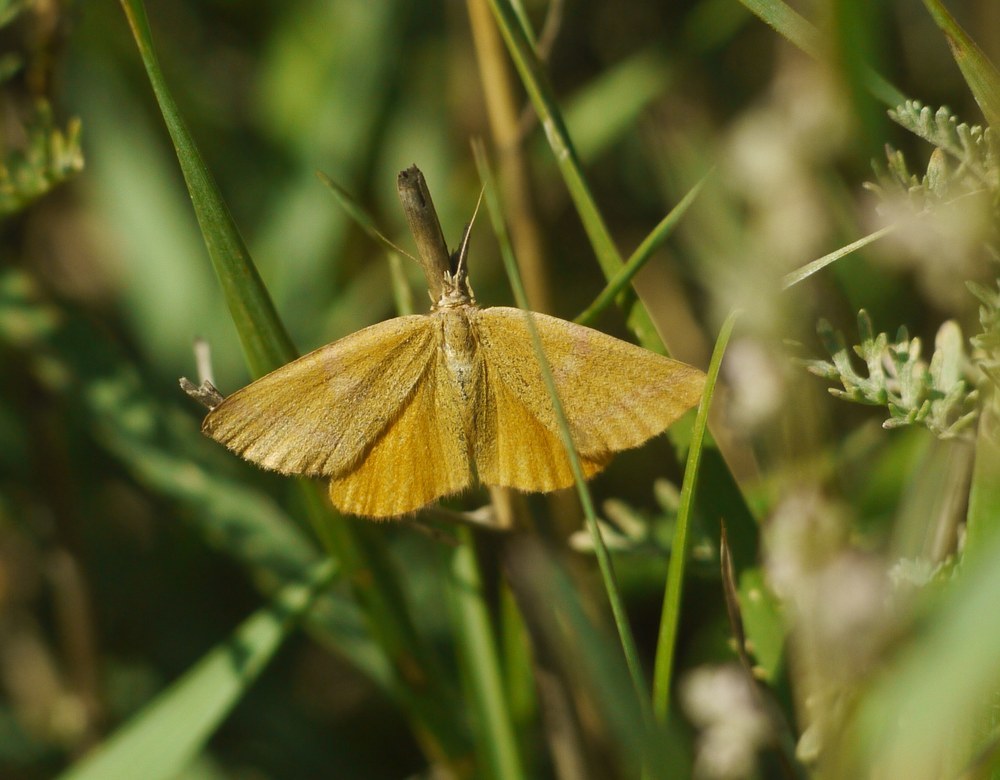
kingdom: Animalia
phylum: Arthropoda
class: Insecta
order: Lepidoptera
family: Geometridae
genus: Lythria
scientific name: Lythria purpuraria
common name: Purple-barred yellow
